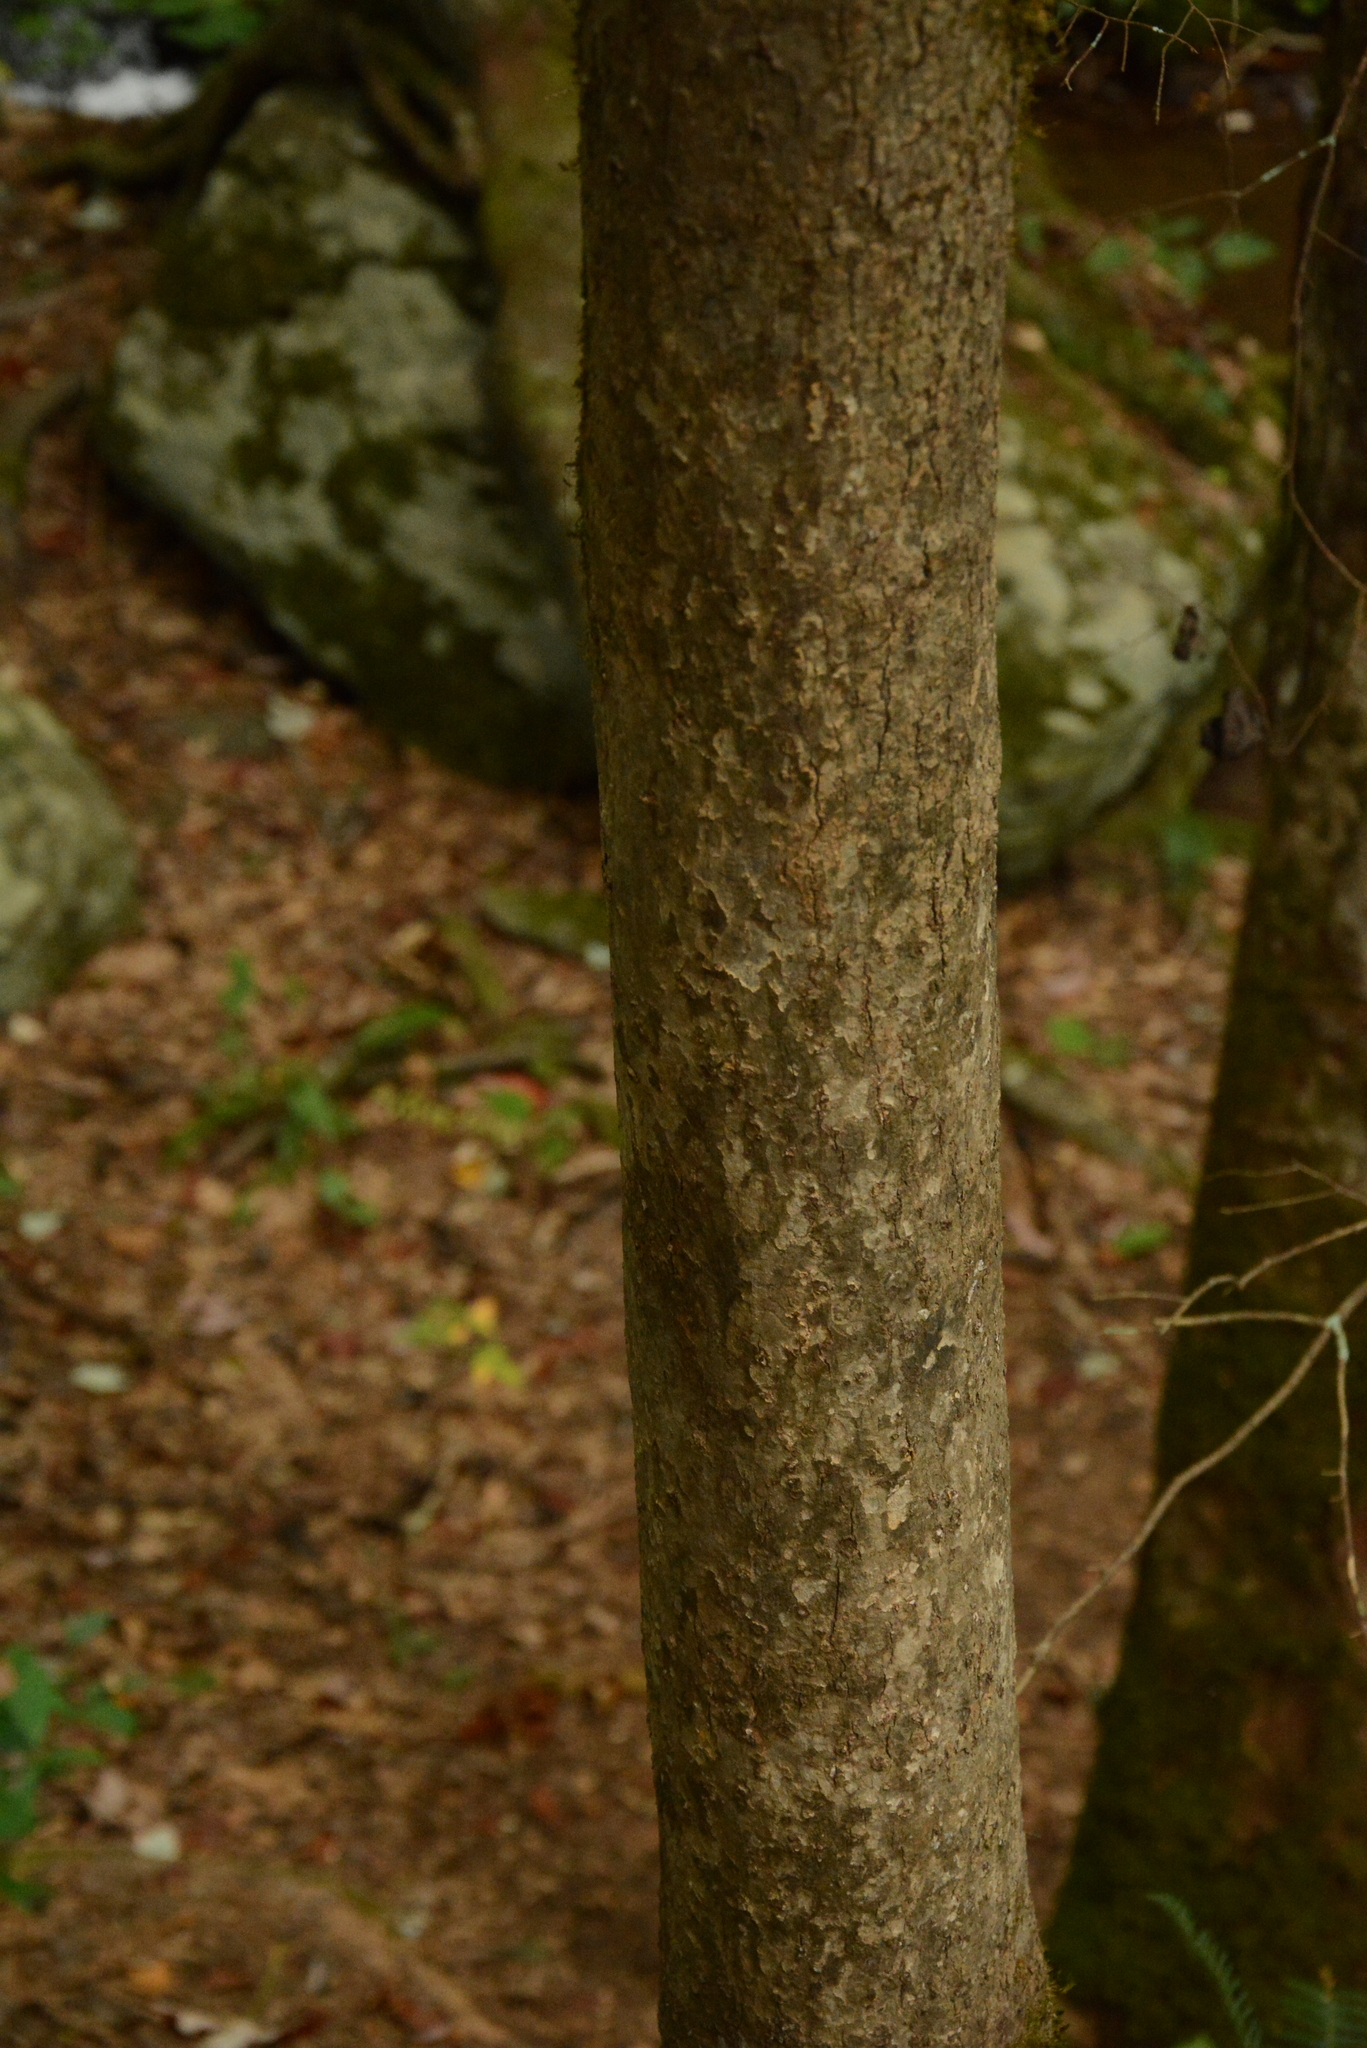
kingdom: Plantae
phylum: Tracheophyta
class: Magnoliopsida
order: Cornales
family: Nyssaceae
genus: Nyssa
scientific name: Nyssa sylvatica
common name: Black tupelo
